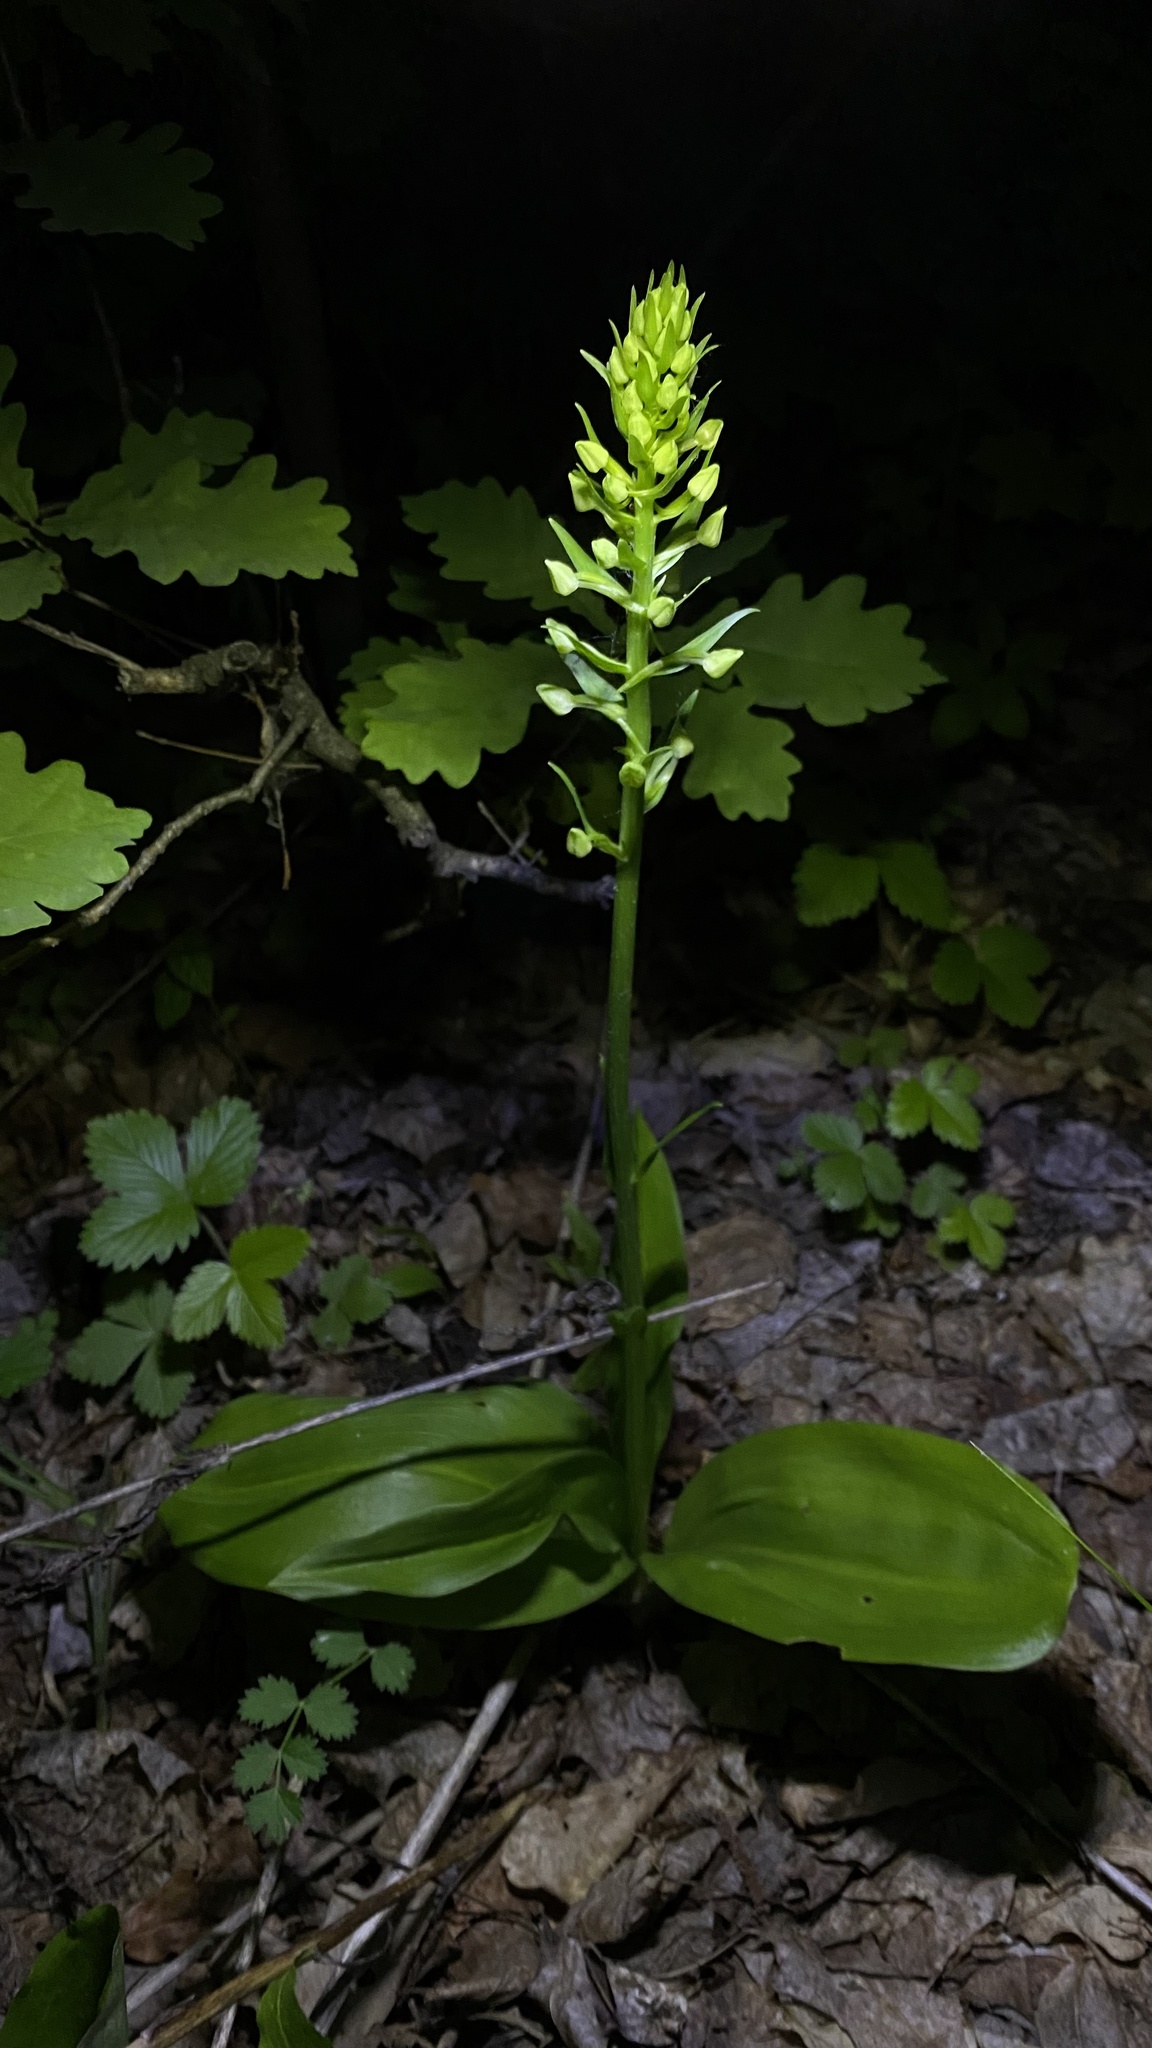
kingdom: Plantae
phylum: Tracheophyta
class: Liliopsida
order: Asparagales
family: Orchidaceae
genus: Platanthera
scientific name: Platanthera
